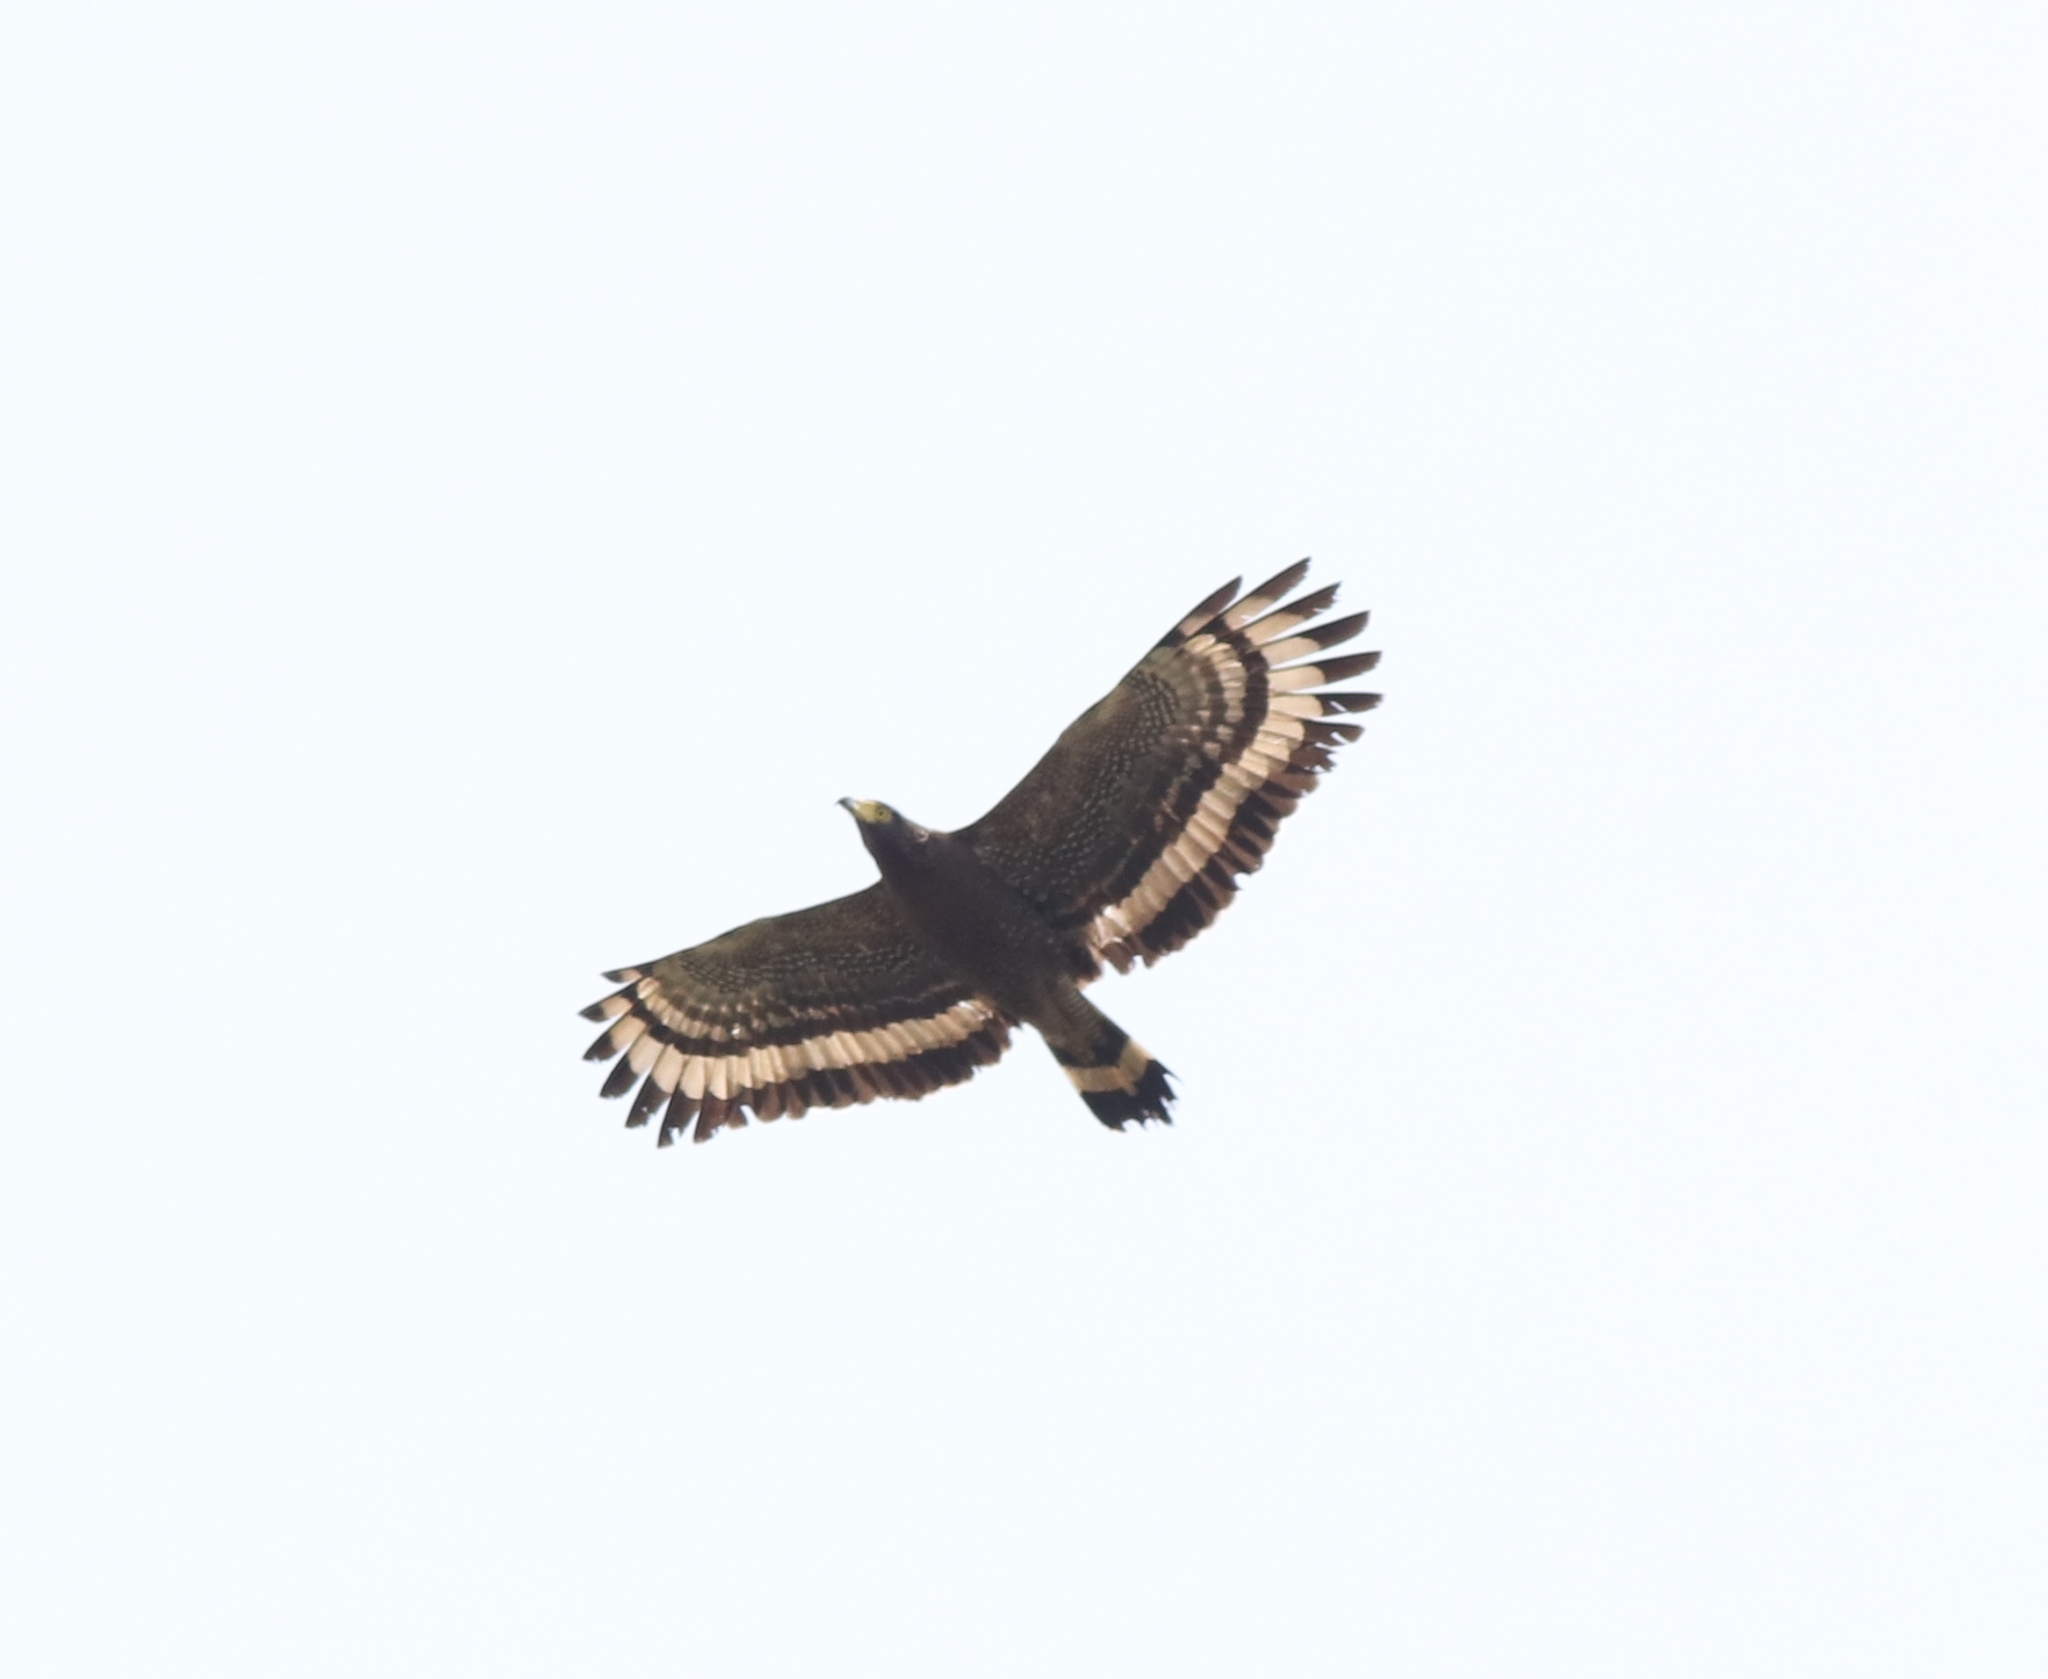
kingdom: Animalia
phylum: Chordata
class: Aves
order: Accipitriformes
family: Accipitridae
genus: Spilornis
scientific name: Spilornis cheela
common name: Crested serpent eagle
